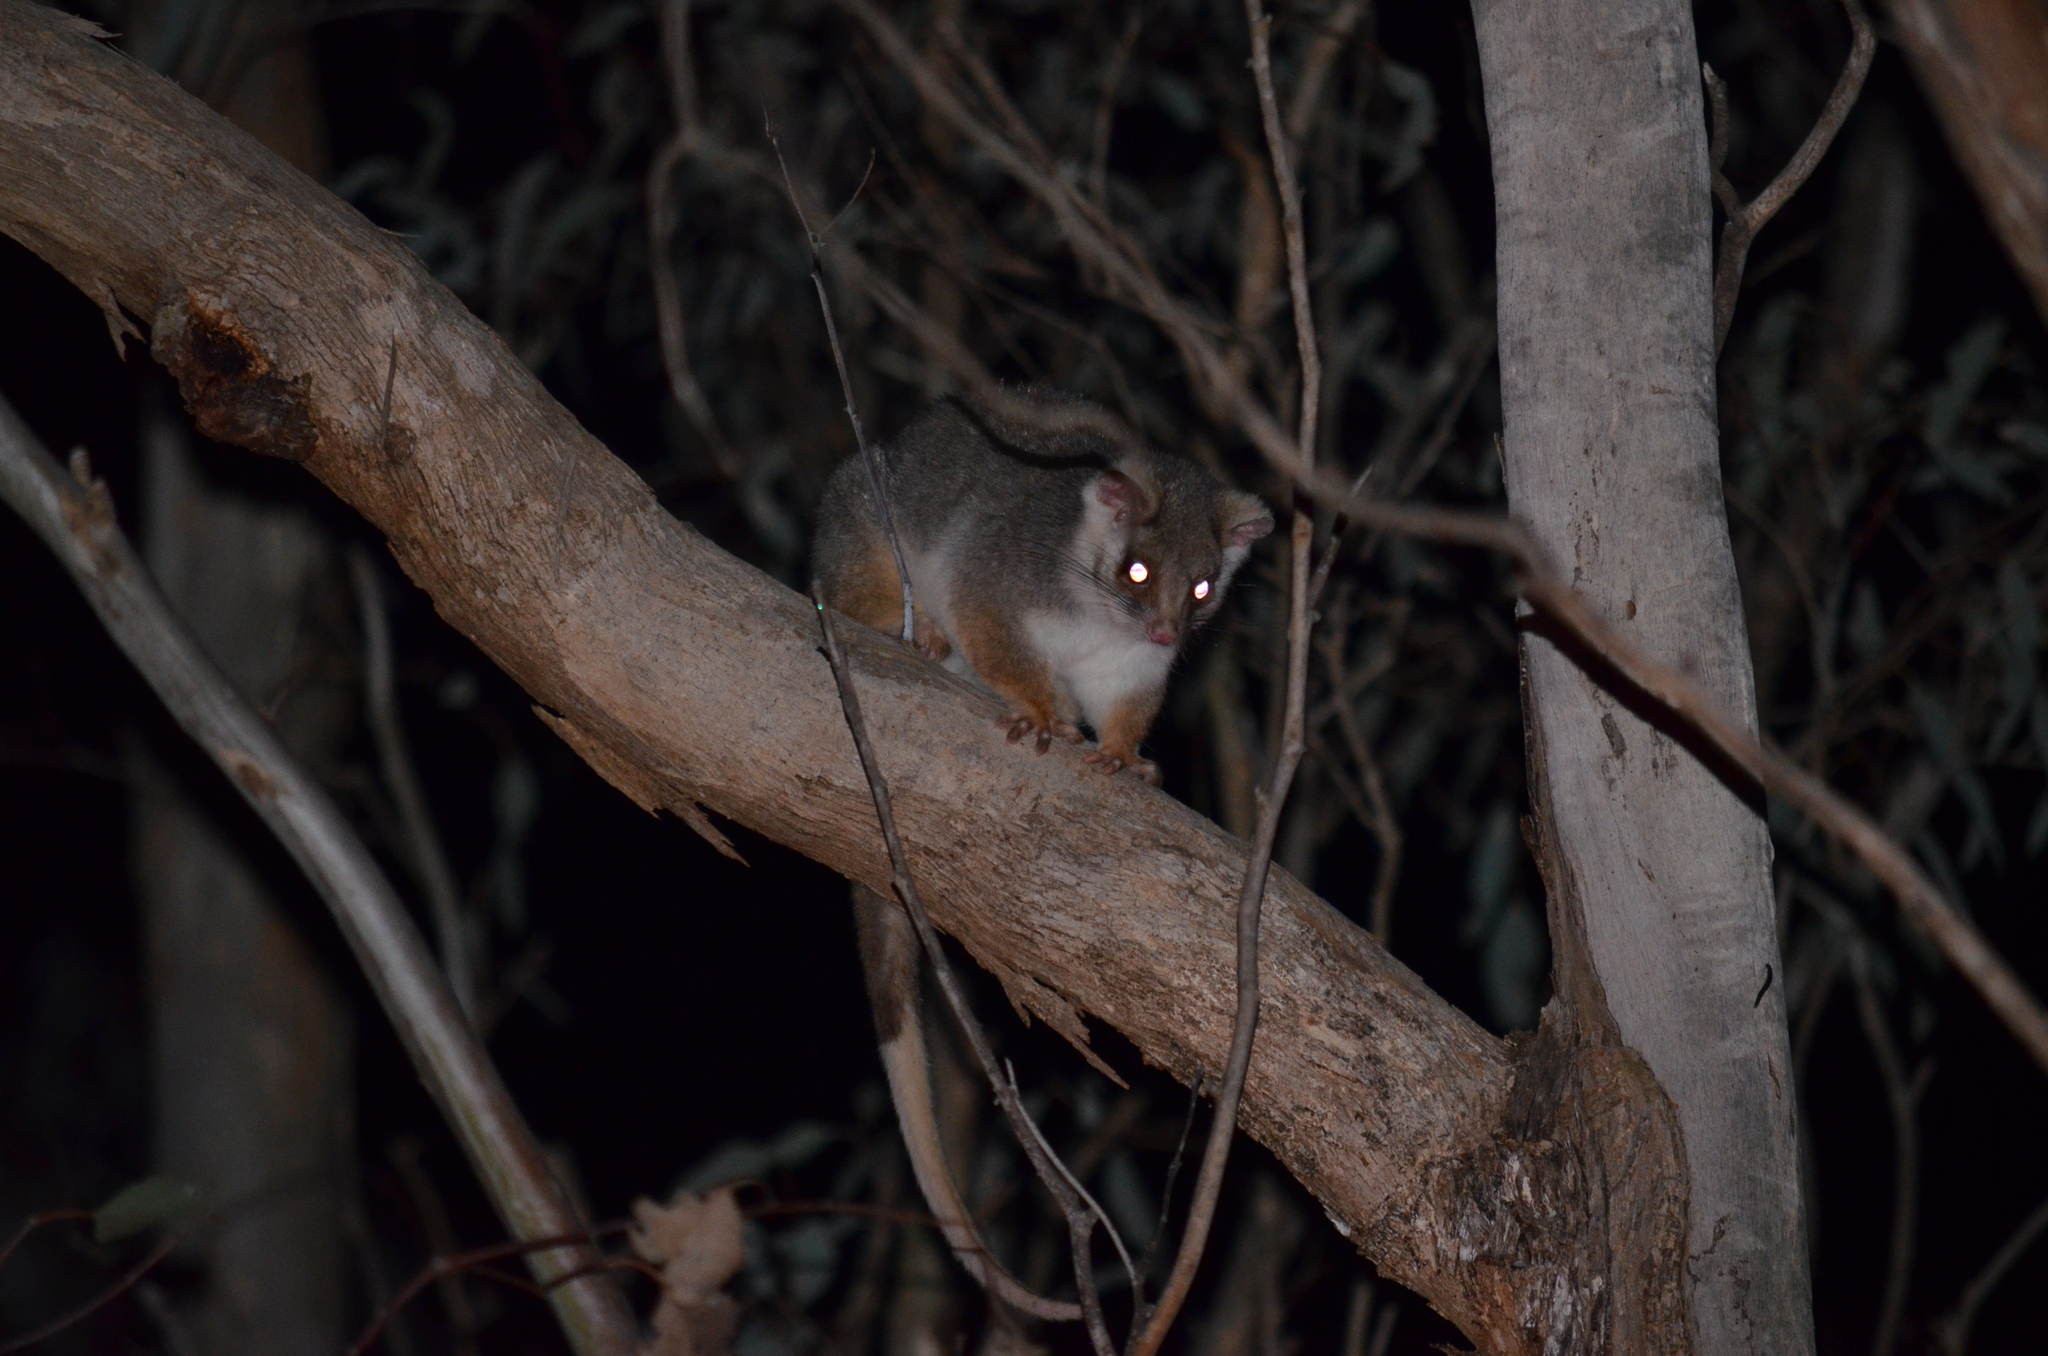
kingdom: Animalia
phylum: Chordata
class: Mammalia
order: Diprotodontia
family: Pseudocheiridae
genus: Pseudocheirus
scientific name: Pseudocheirus peregrinus
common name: Common ringtail possum
